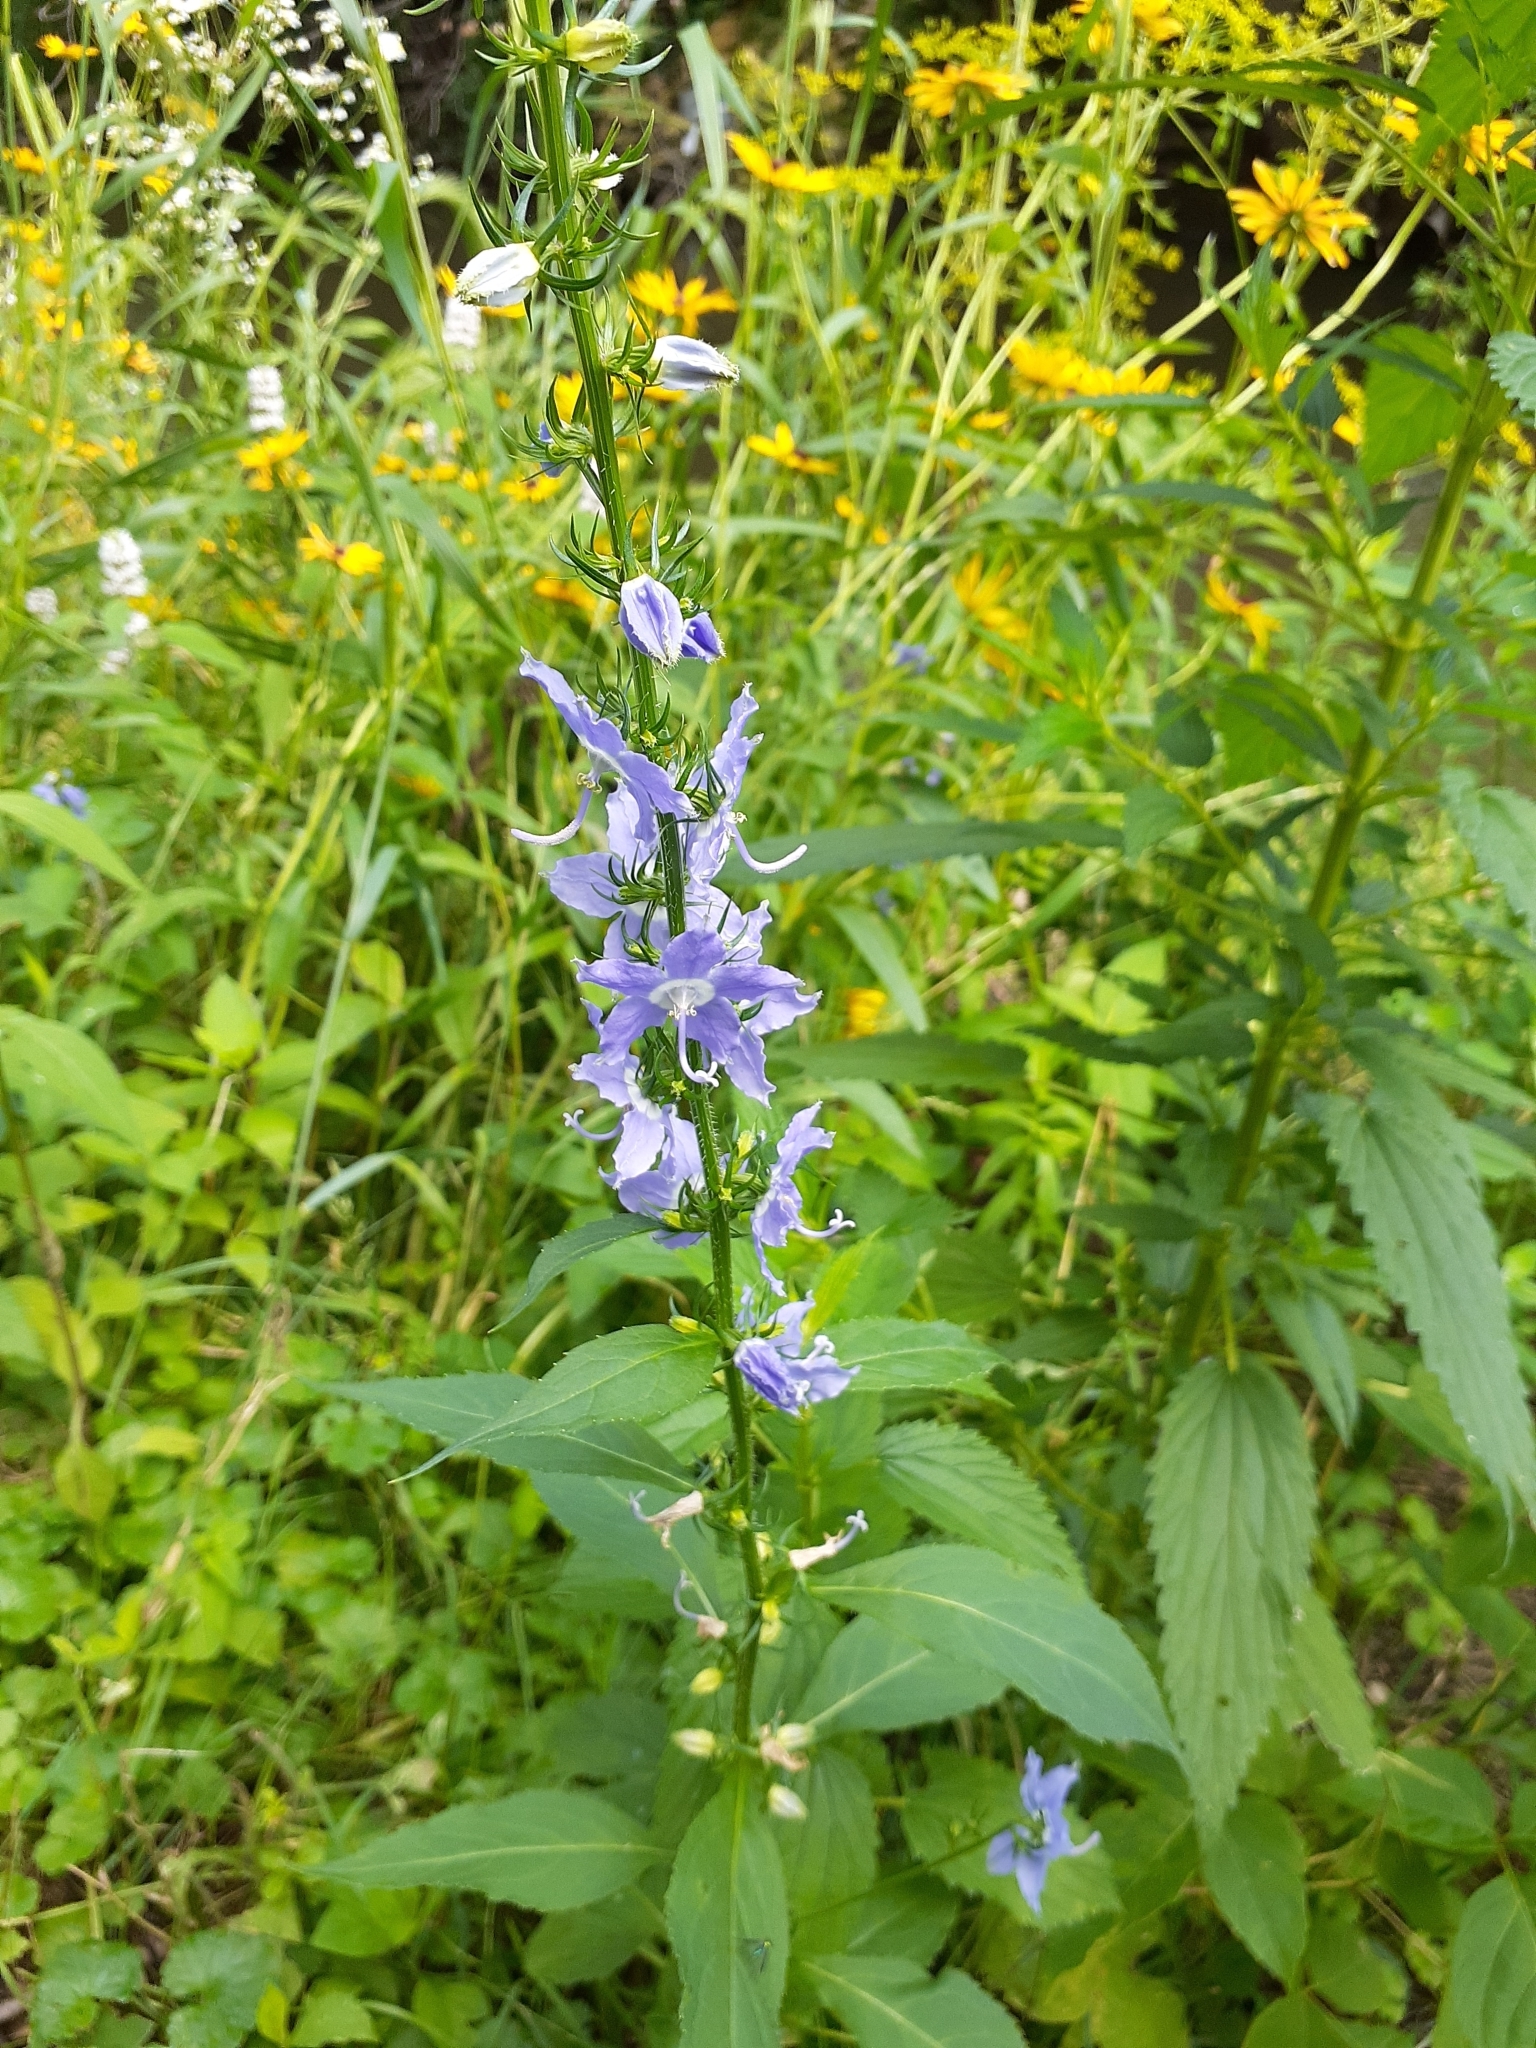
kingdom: Plantae
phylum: Tracheophyta
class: Magnoliopsida
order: Asterales
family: Campanulaceae
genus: Campanulastrum
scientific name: Campanulastrum americanum
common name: American bellflower
